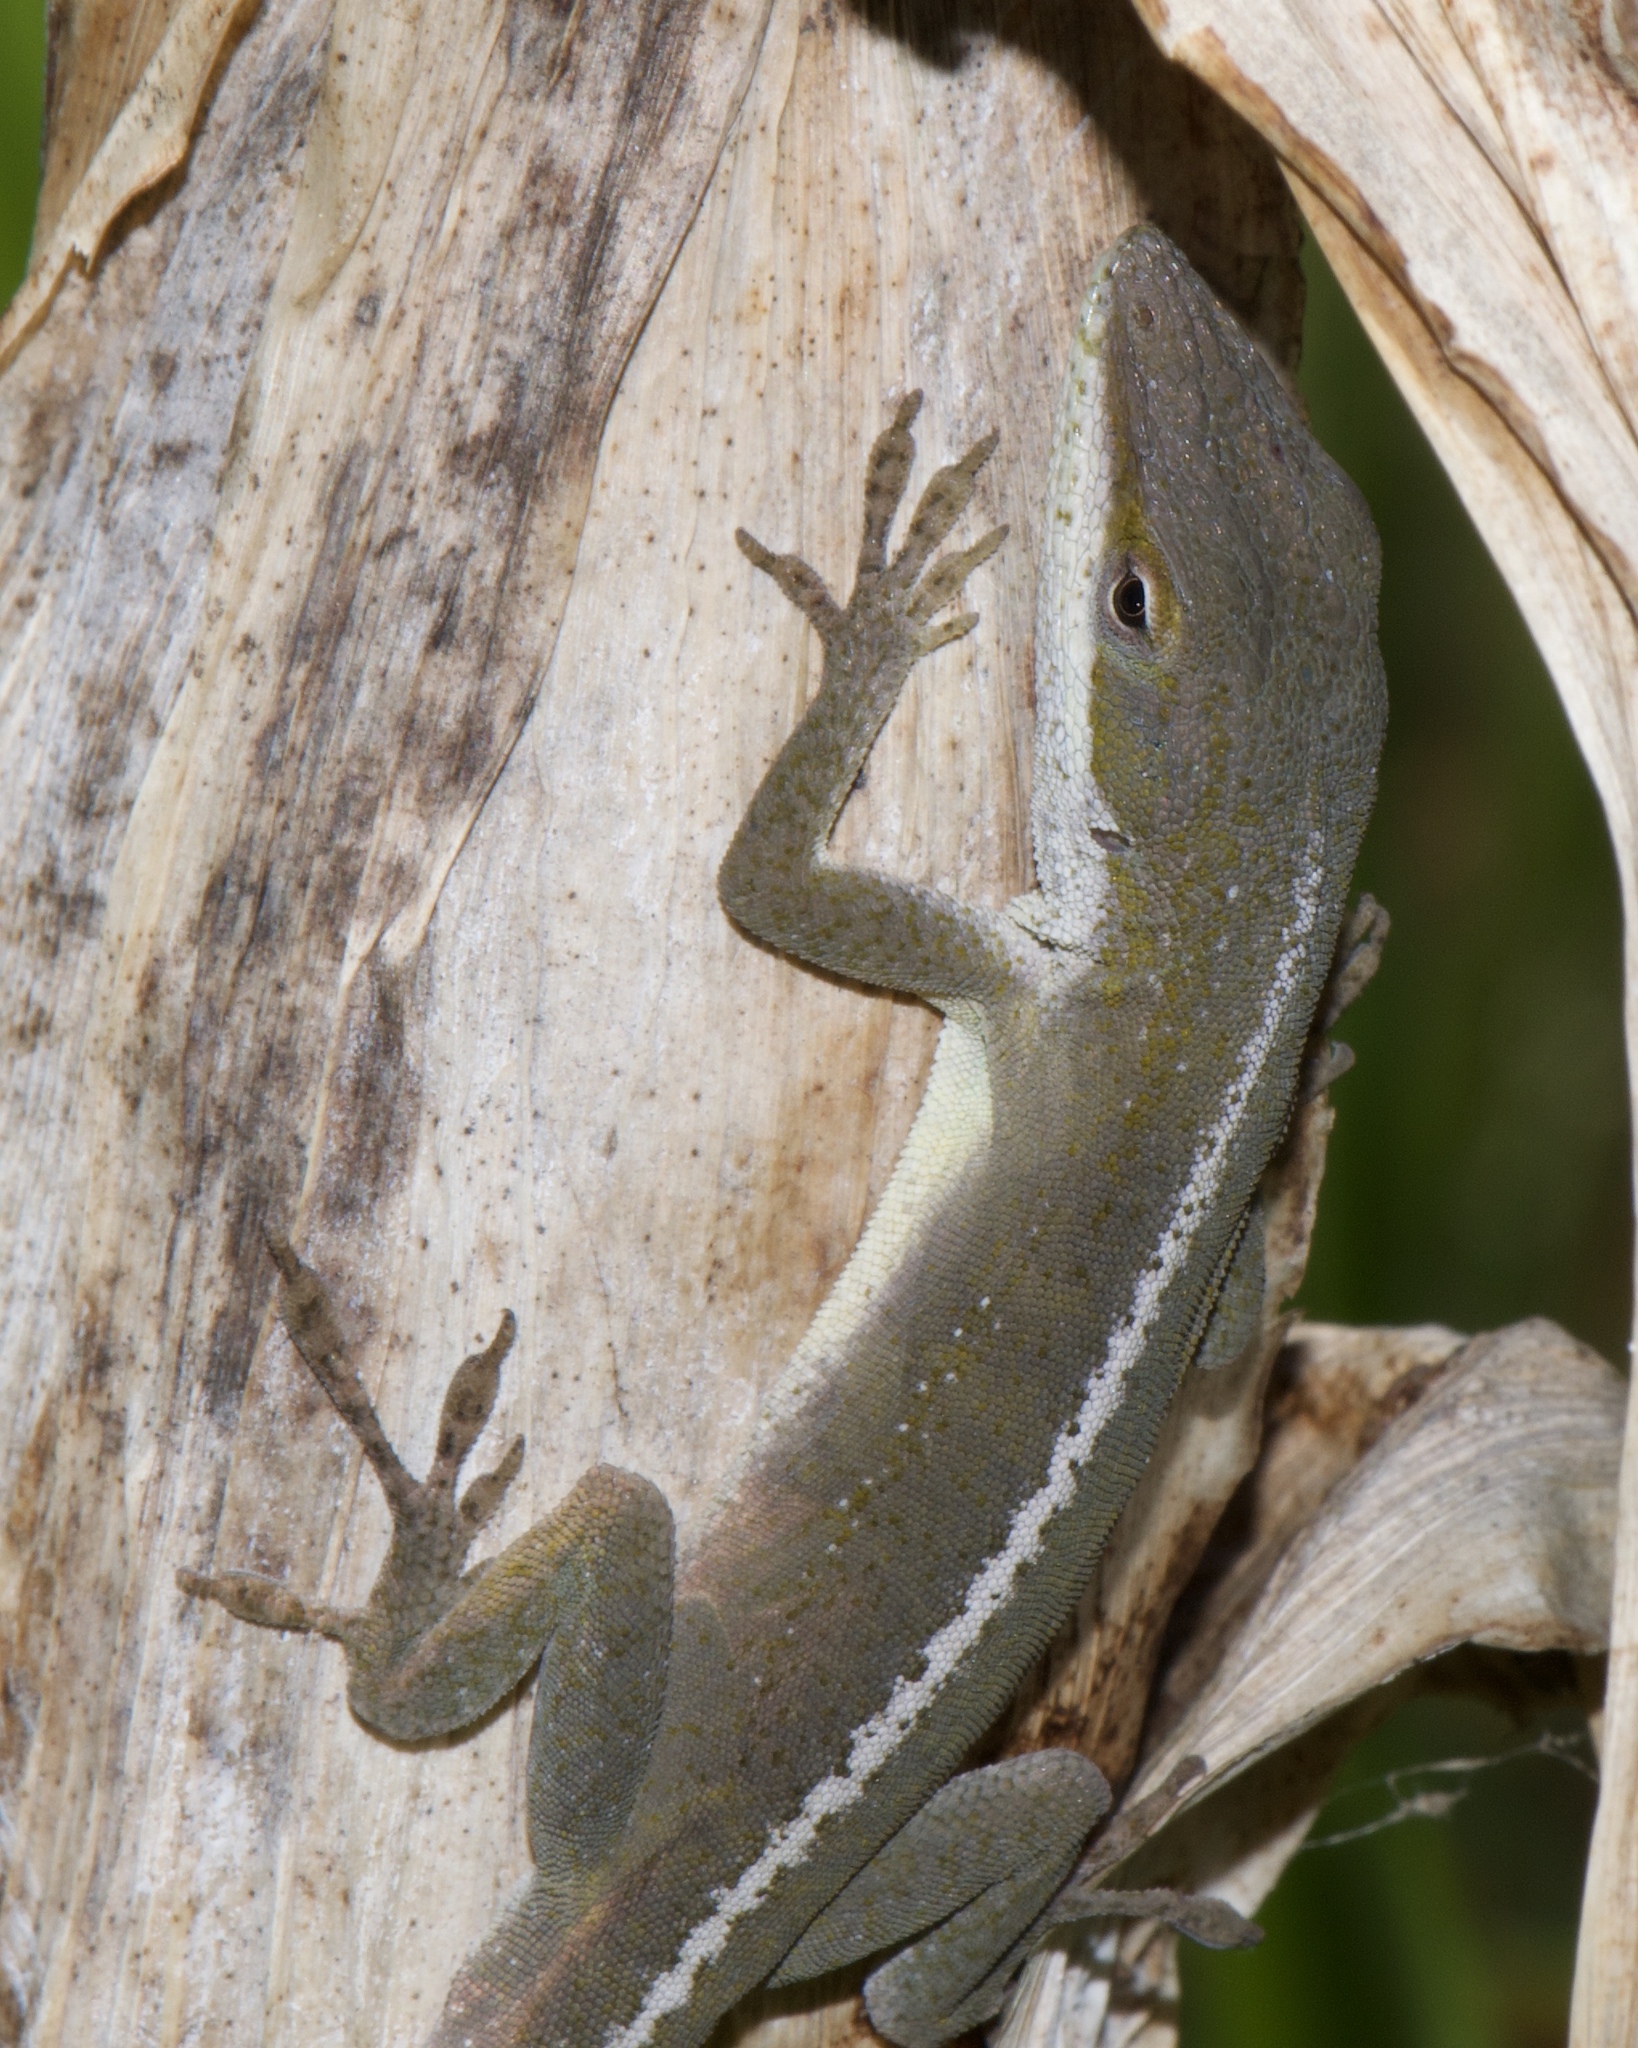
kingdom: Animalia
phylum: Chordata
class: Squamata
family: Dactyloidae
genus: Anolis
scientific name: Anolis carolinensis
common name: Green anole
